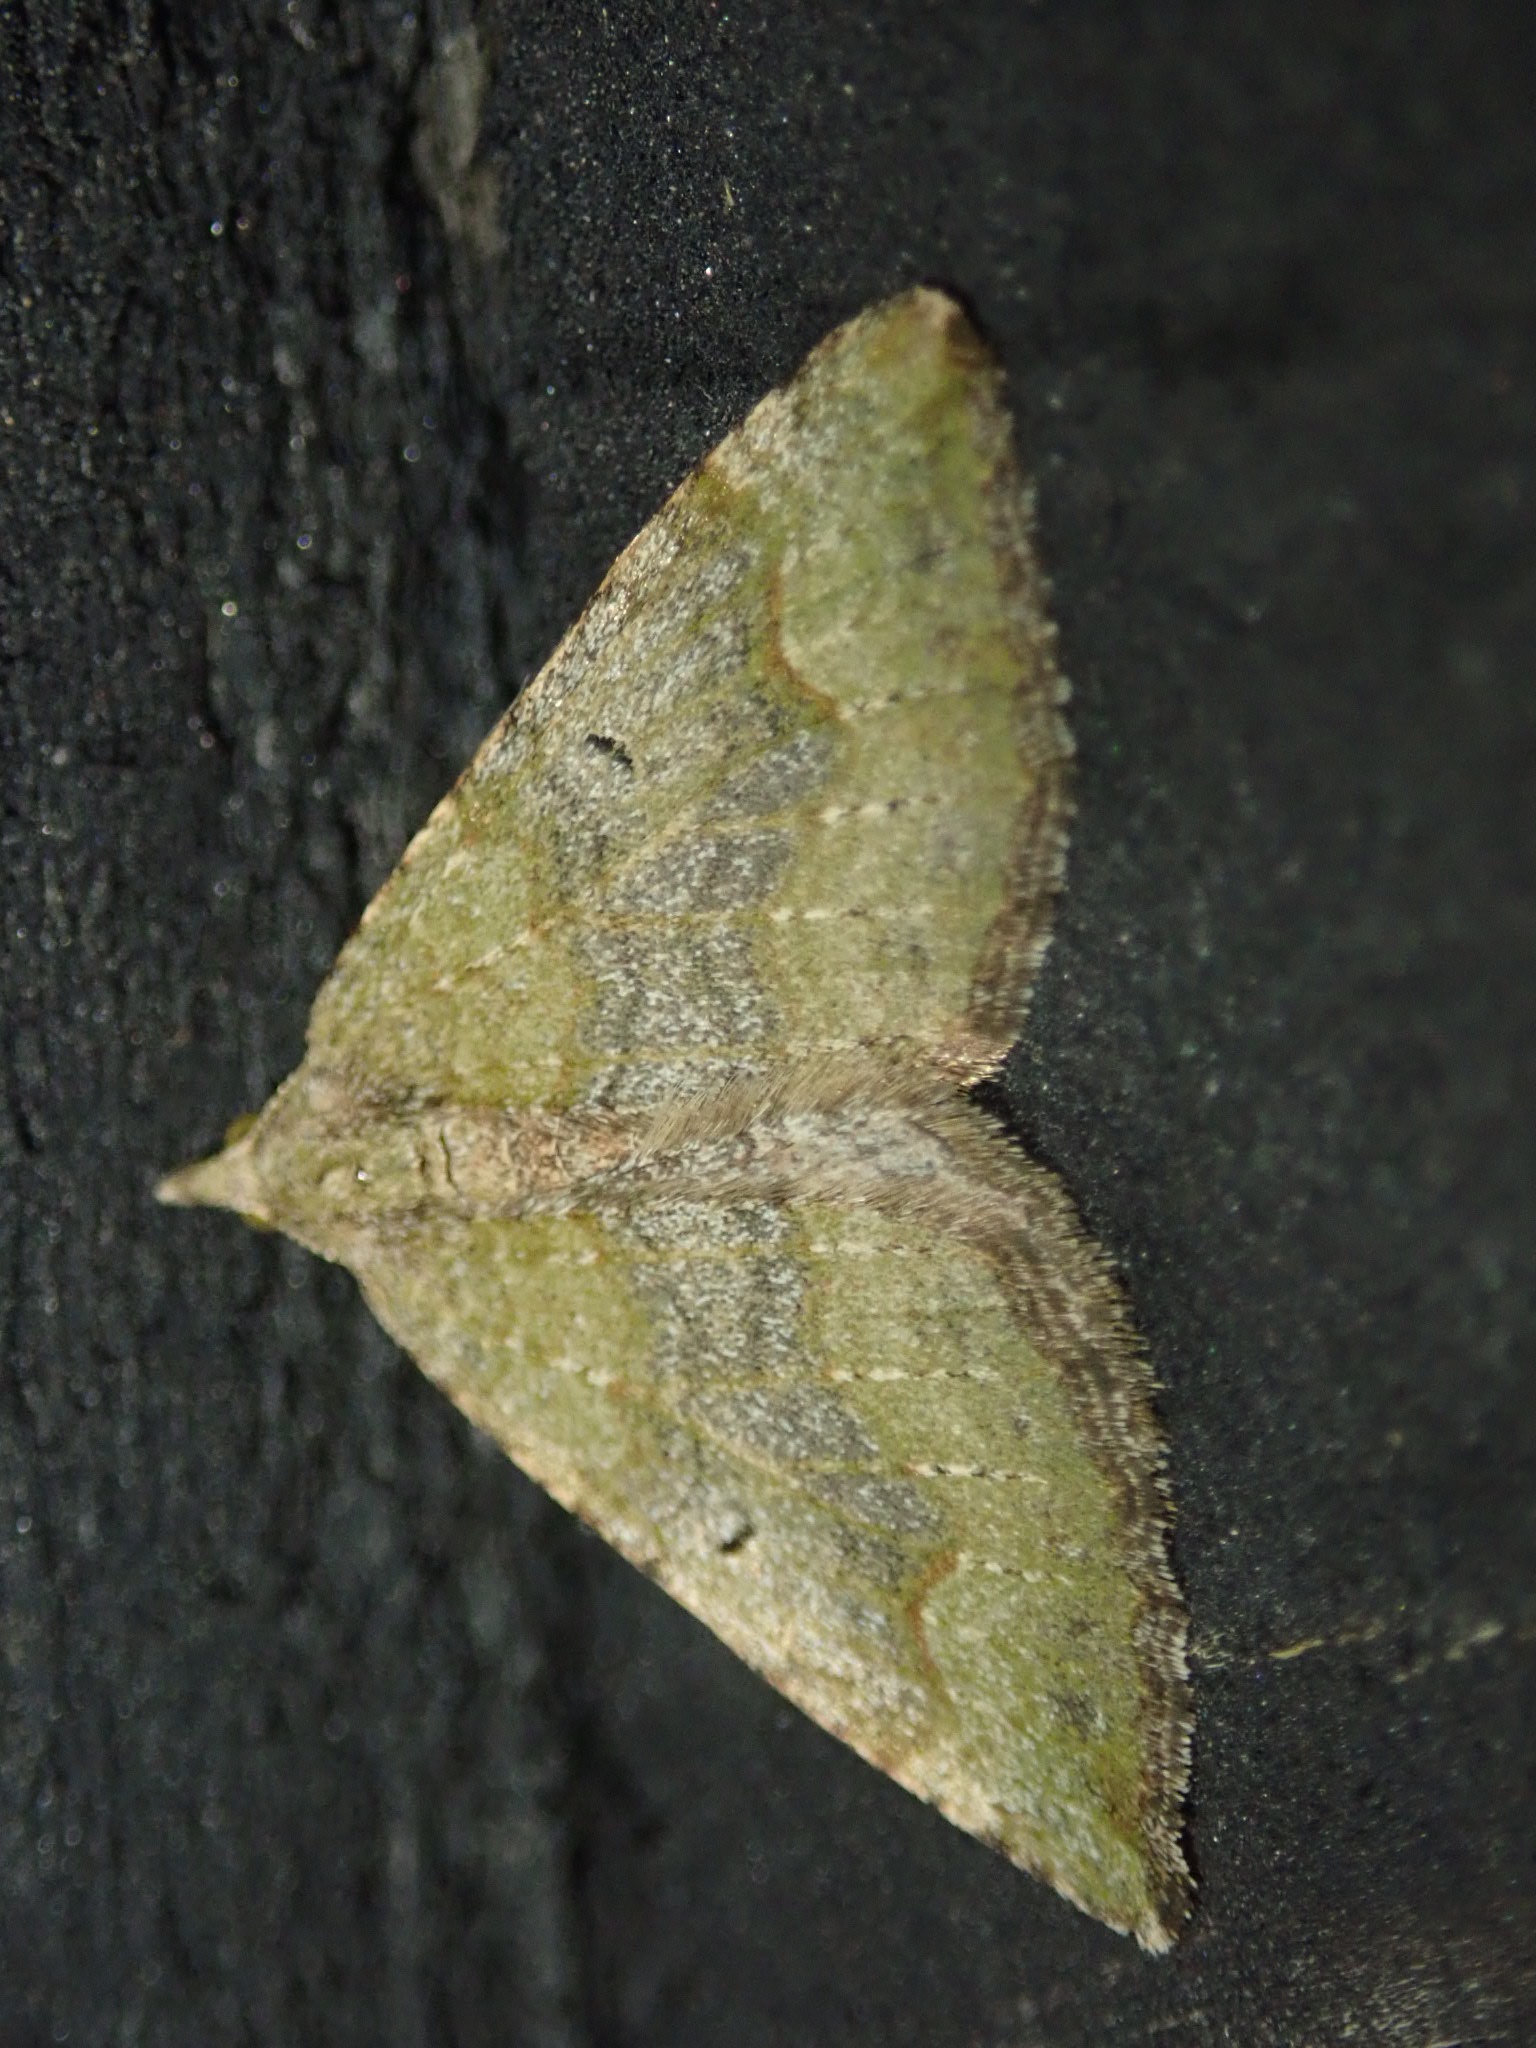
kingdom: Animalia
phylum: Arthropoda
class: Insecta
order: Lepidoptera
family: Geometridae
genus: Epyaxa
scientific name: Epyaxa rosearia
